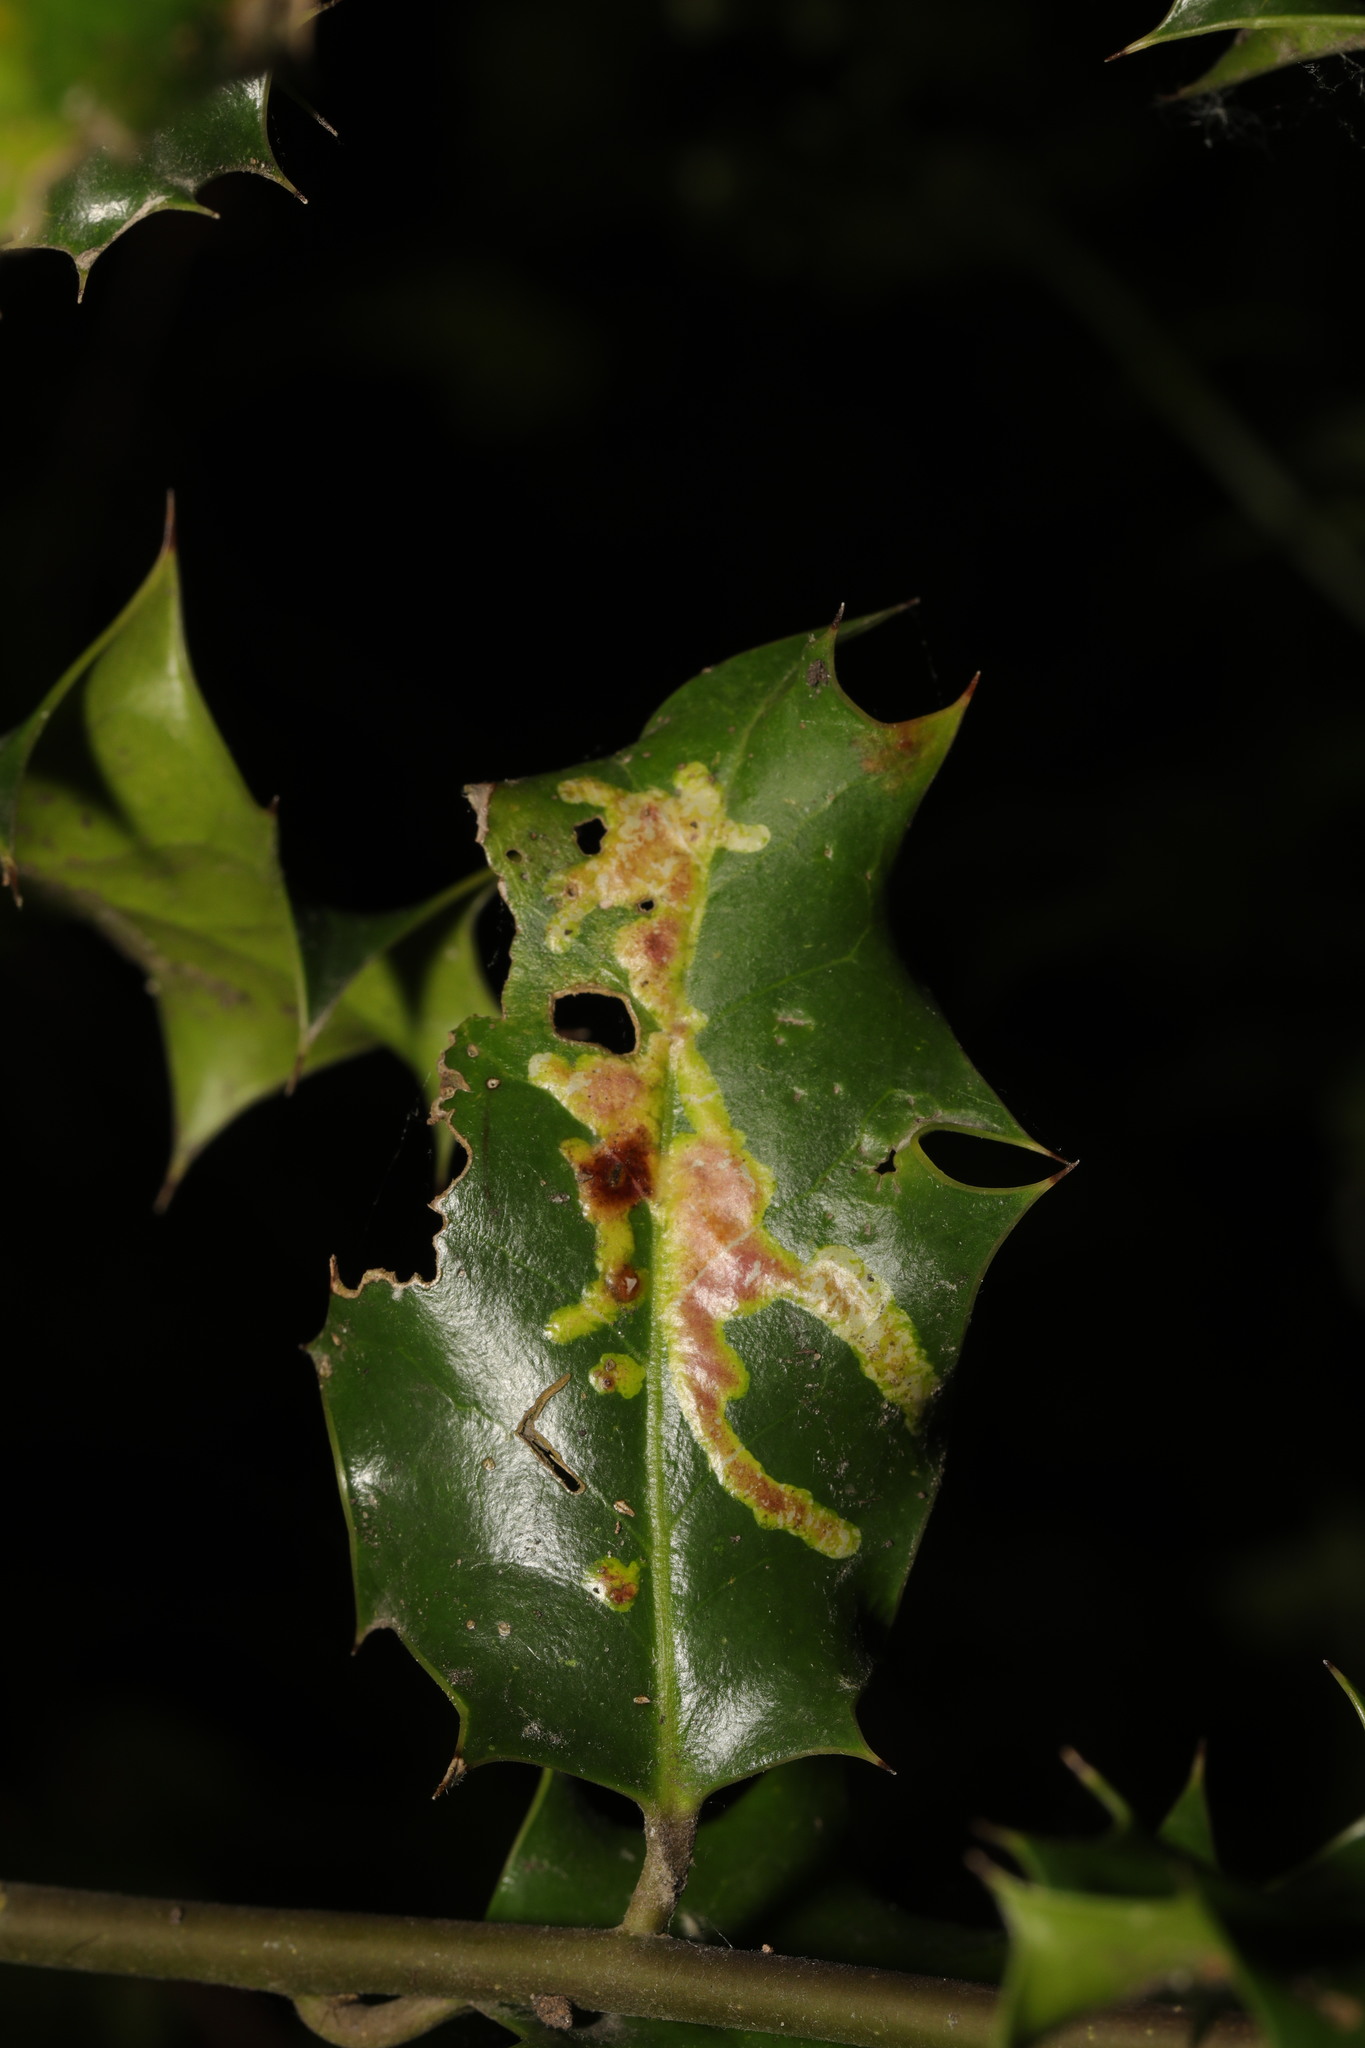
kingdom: Animalia
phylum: Arthropoda
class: Insecta
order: Diptera
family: Agromyzidae
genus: Phytomyza
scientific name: Phytomyza ilicis
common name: Holly leafminer
